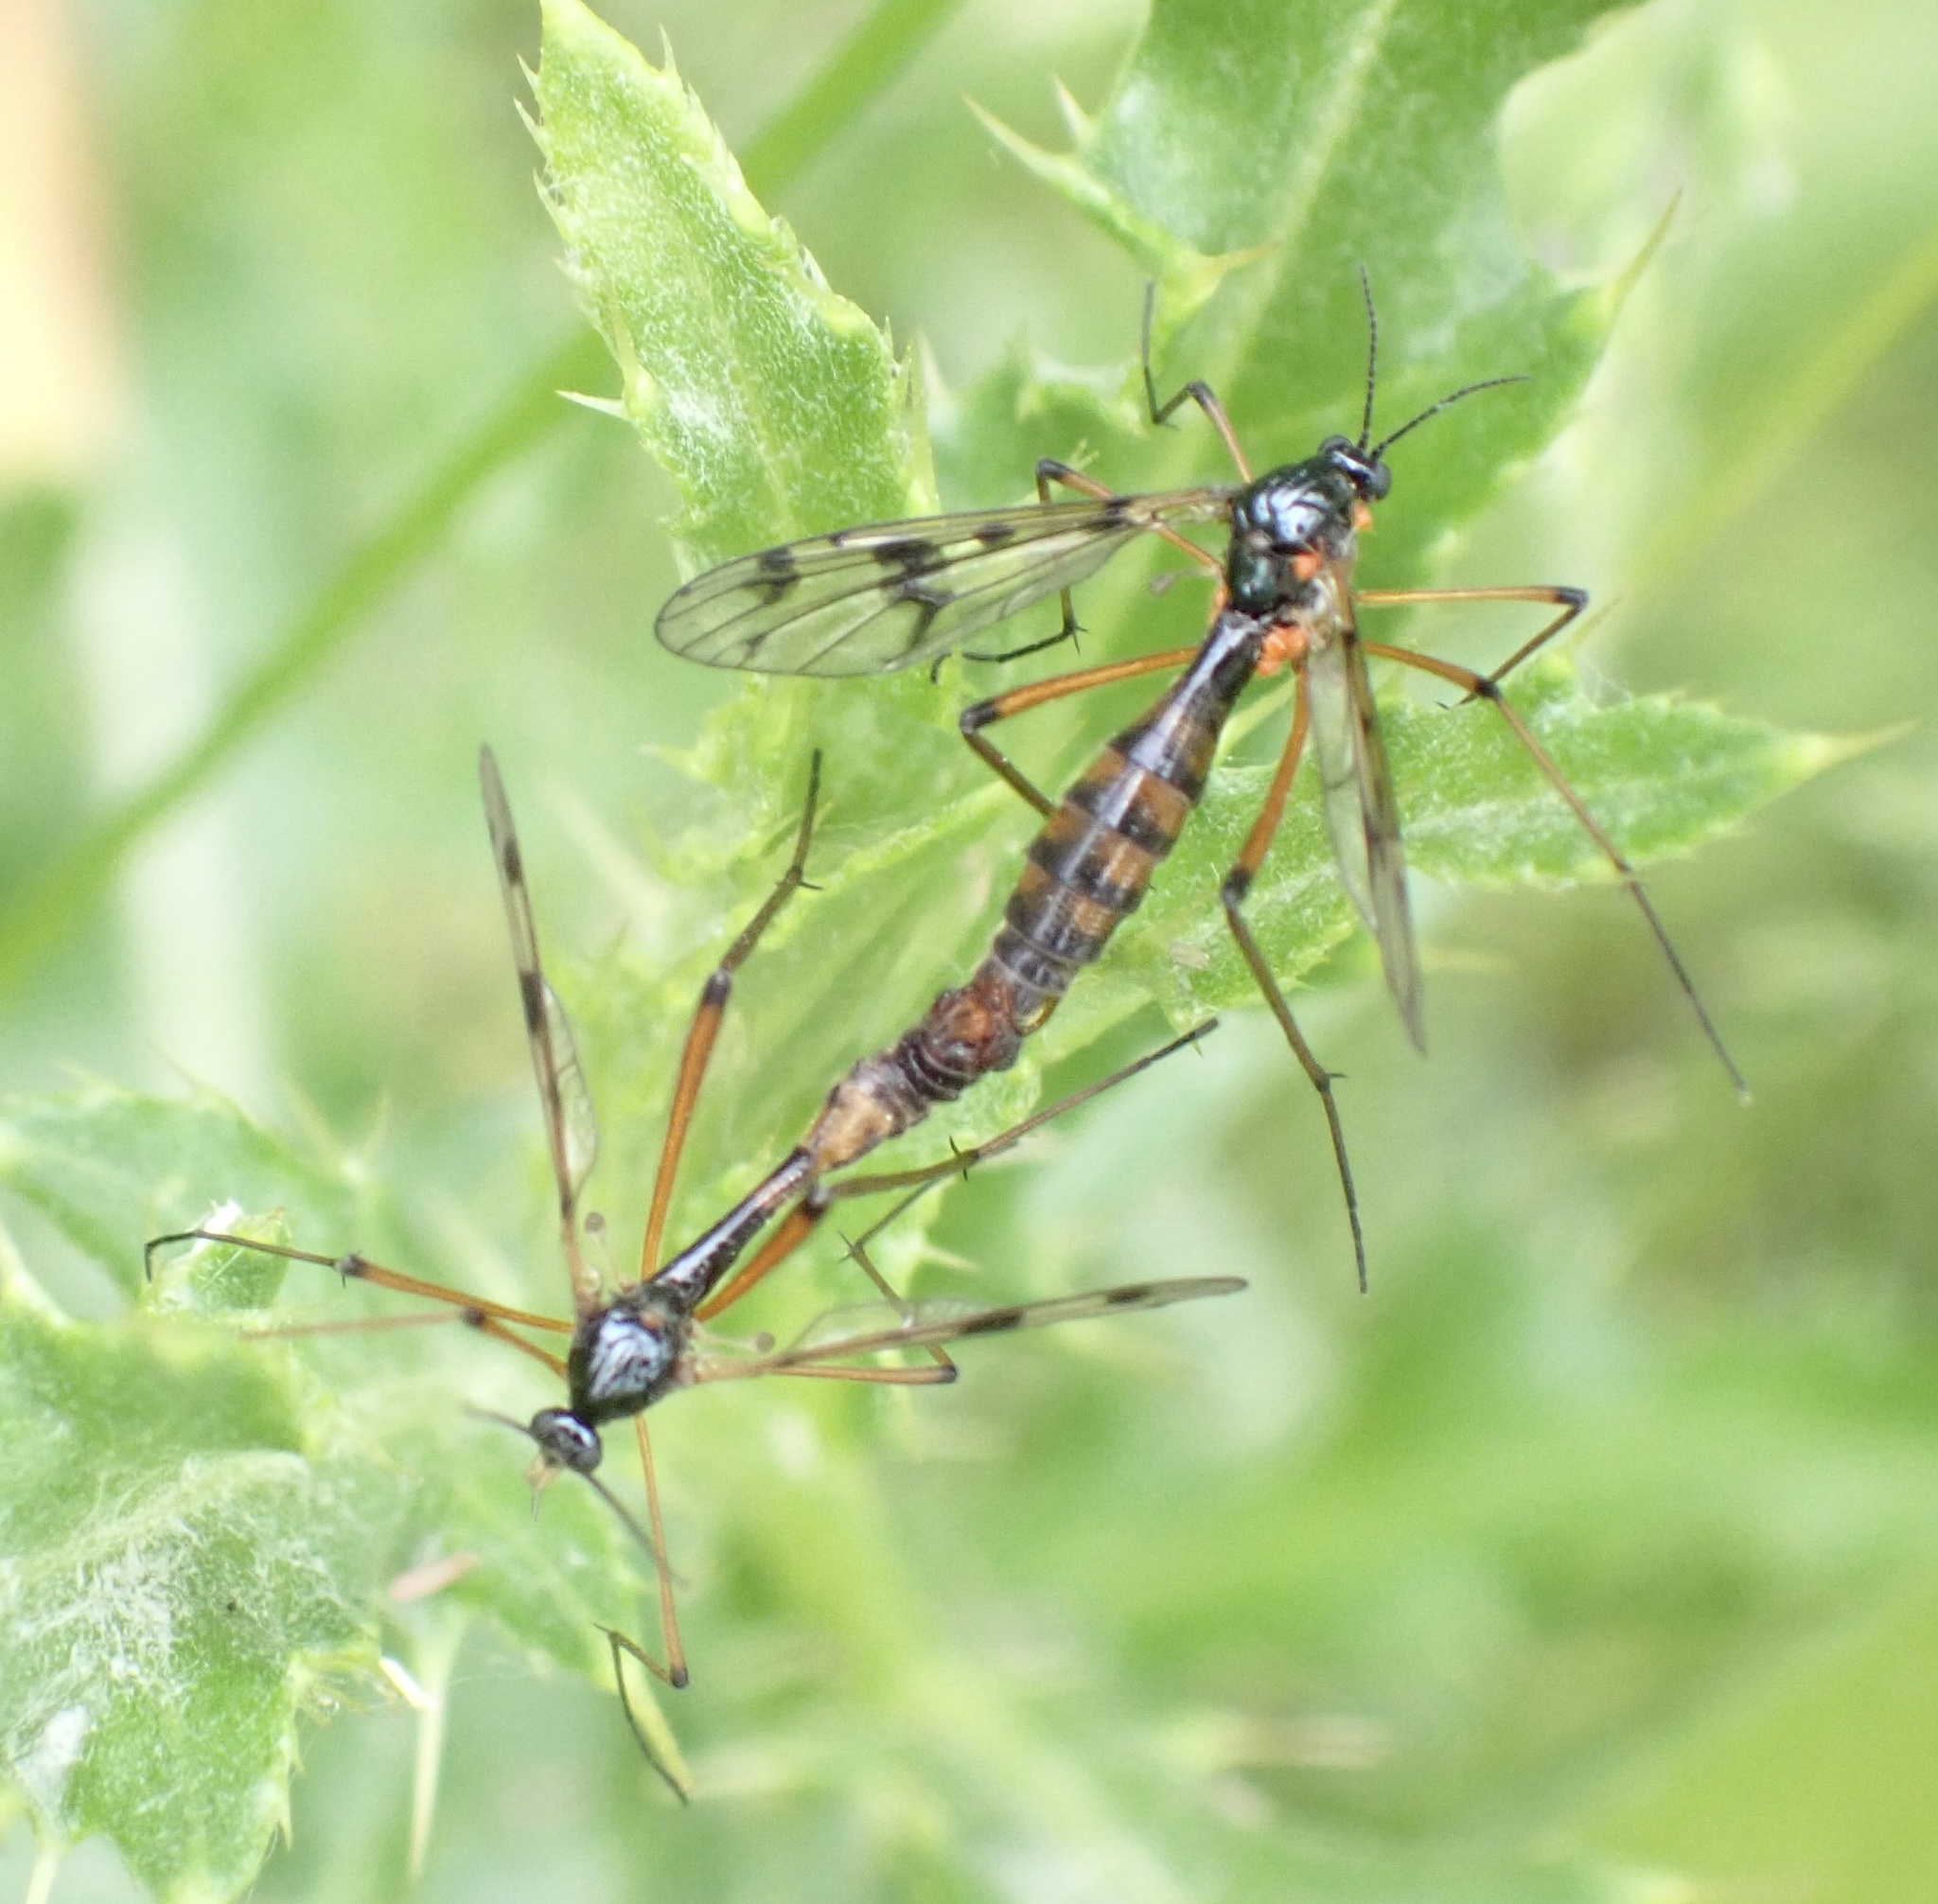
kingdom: Animalia
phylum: Arthropoda
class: Insecta
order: Diptera
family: Ptychopteridae
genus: Ptychoptera
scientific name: Ptychoptera contaminata
